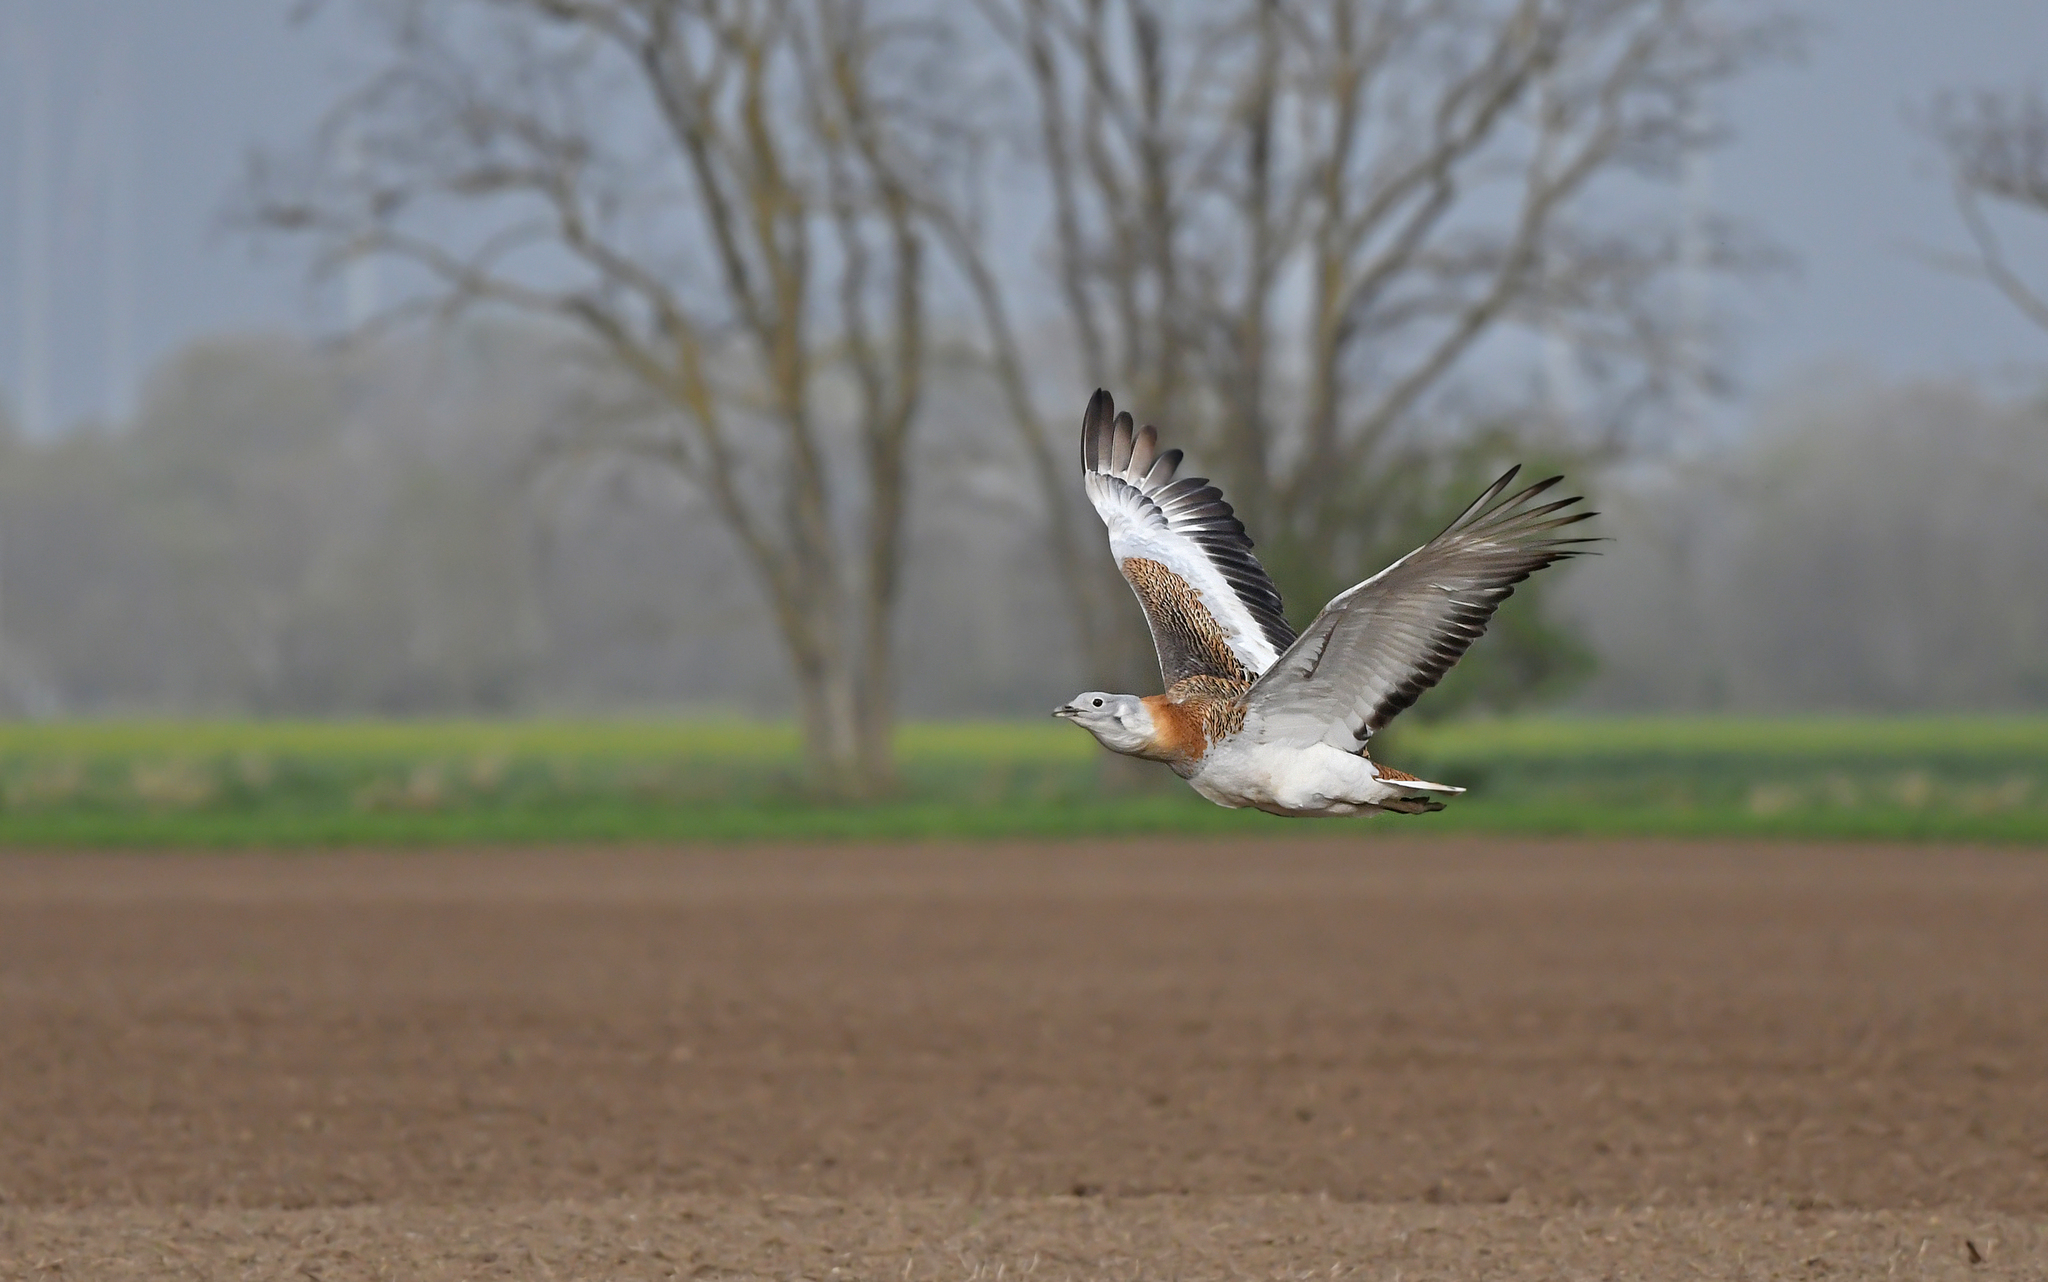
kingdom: Animalia
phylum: Chordata
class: Aves
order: Otidiformes
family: Otididae
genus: Otis
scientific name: Otis tarda
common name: Great bustard
